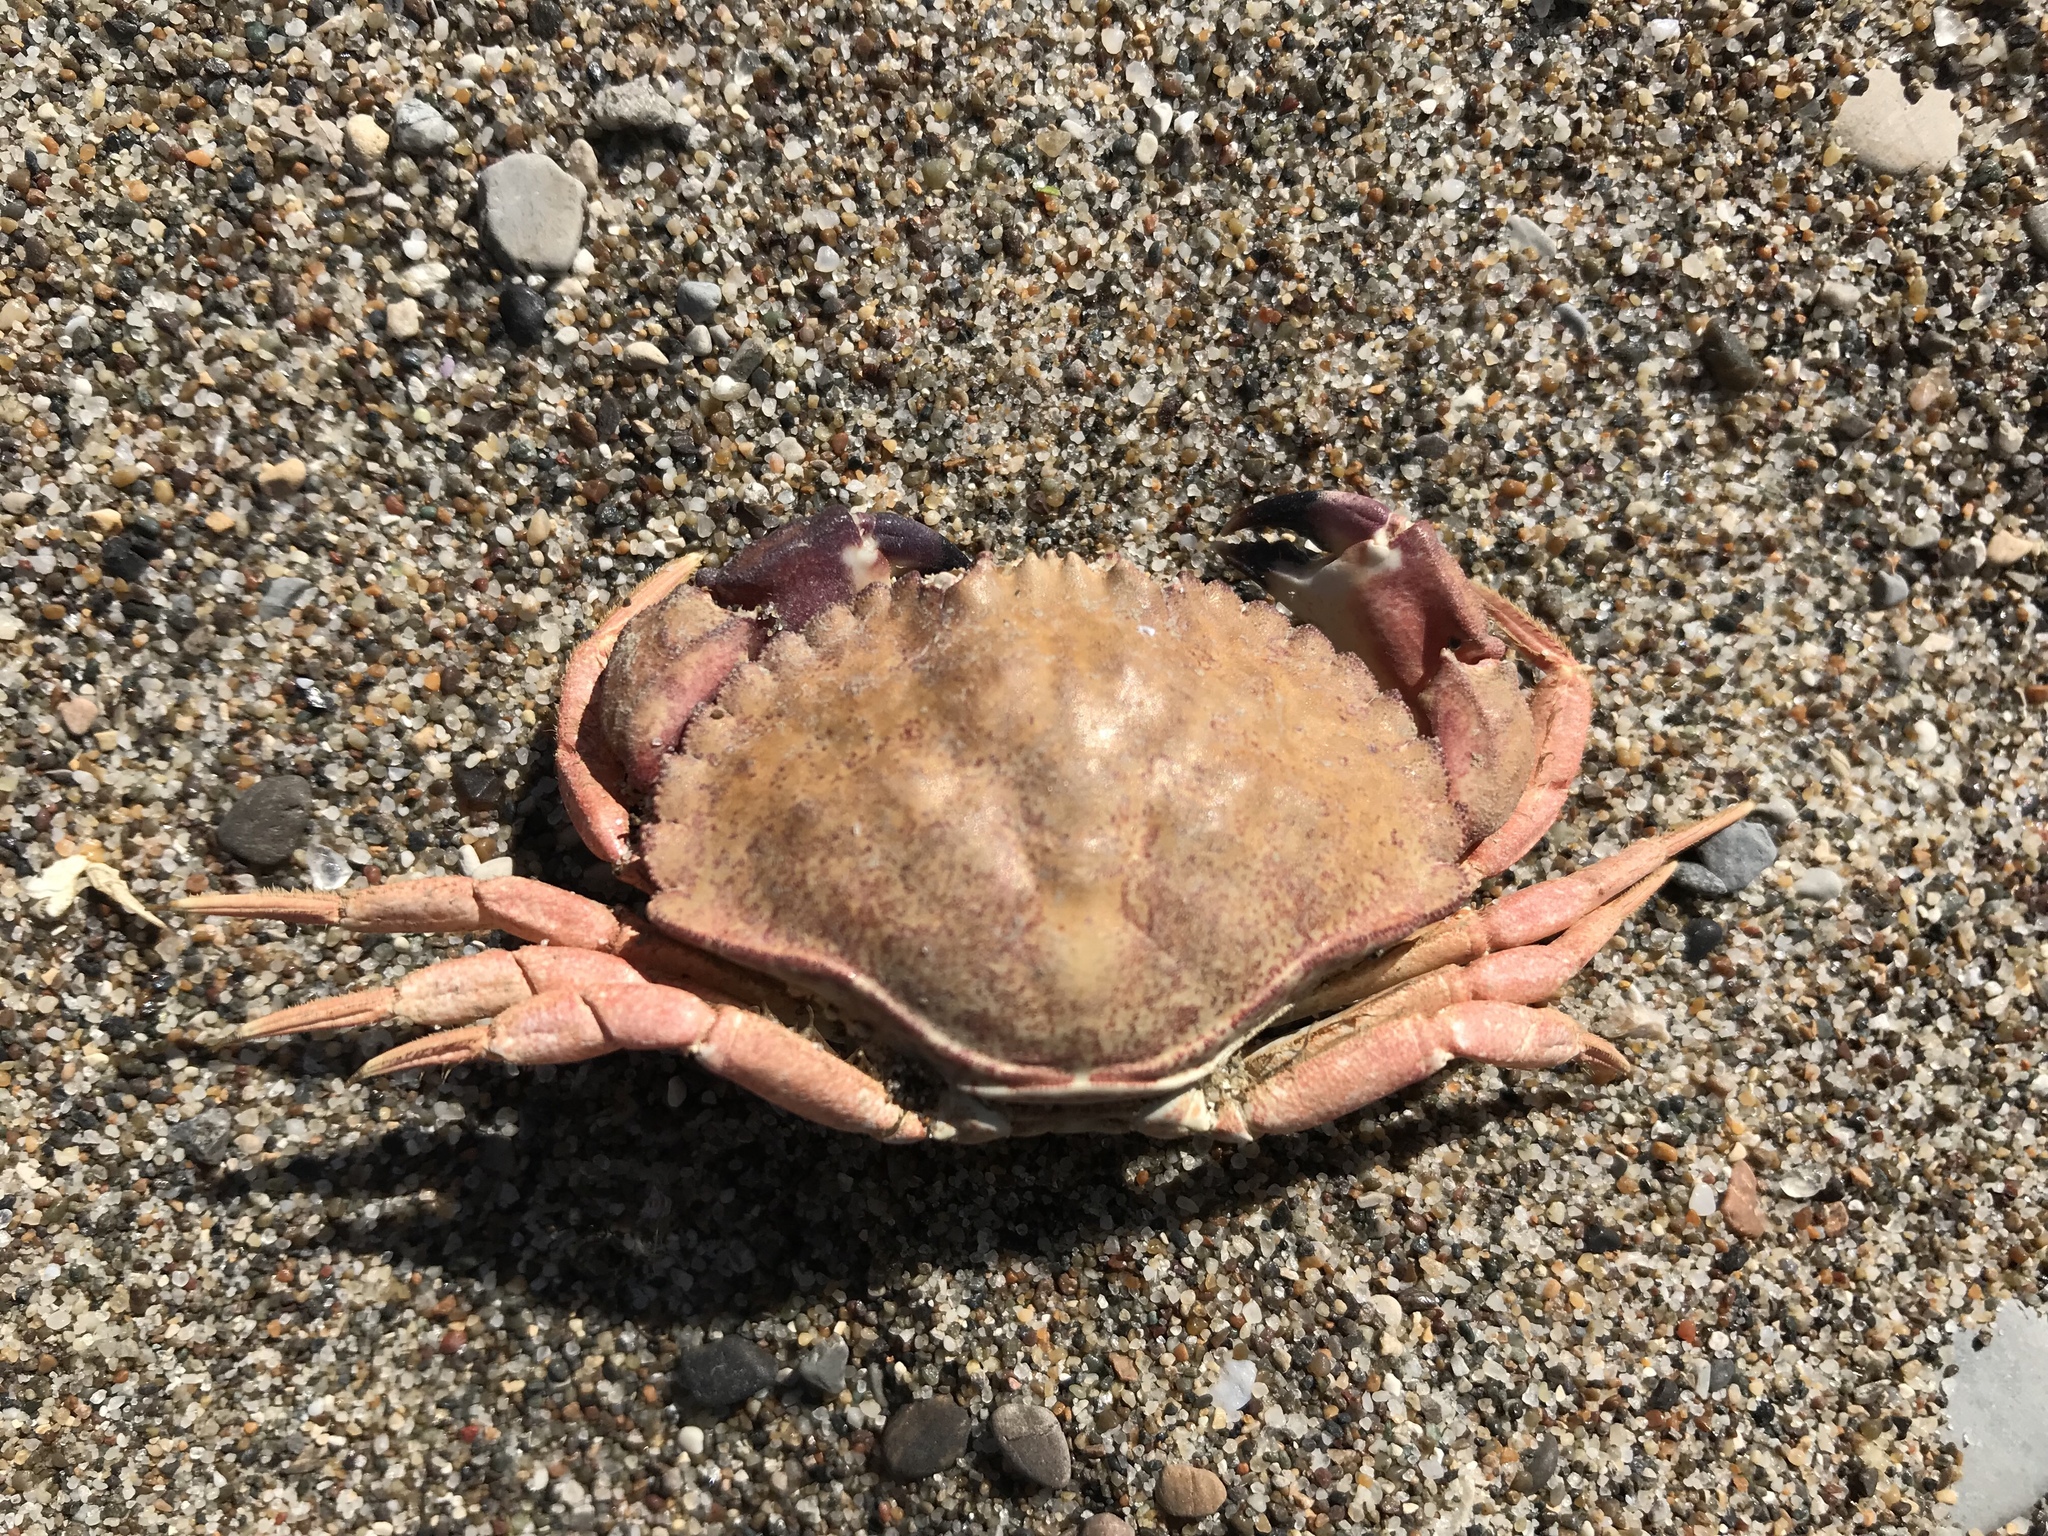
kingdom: Animalia
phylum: Arthropoda
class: Malacostraca
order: Decapoda
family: Cancridae
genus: Metacarcinus
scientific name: Metacarcinus anthonyi
